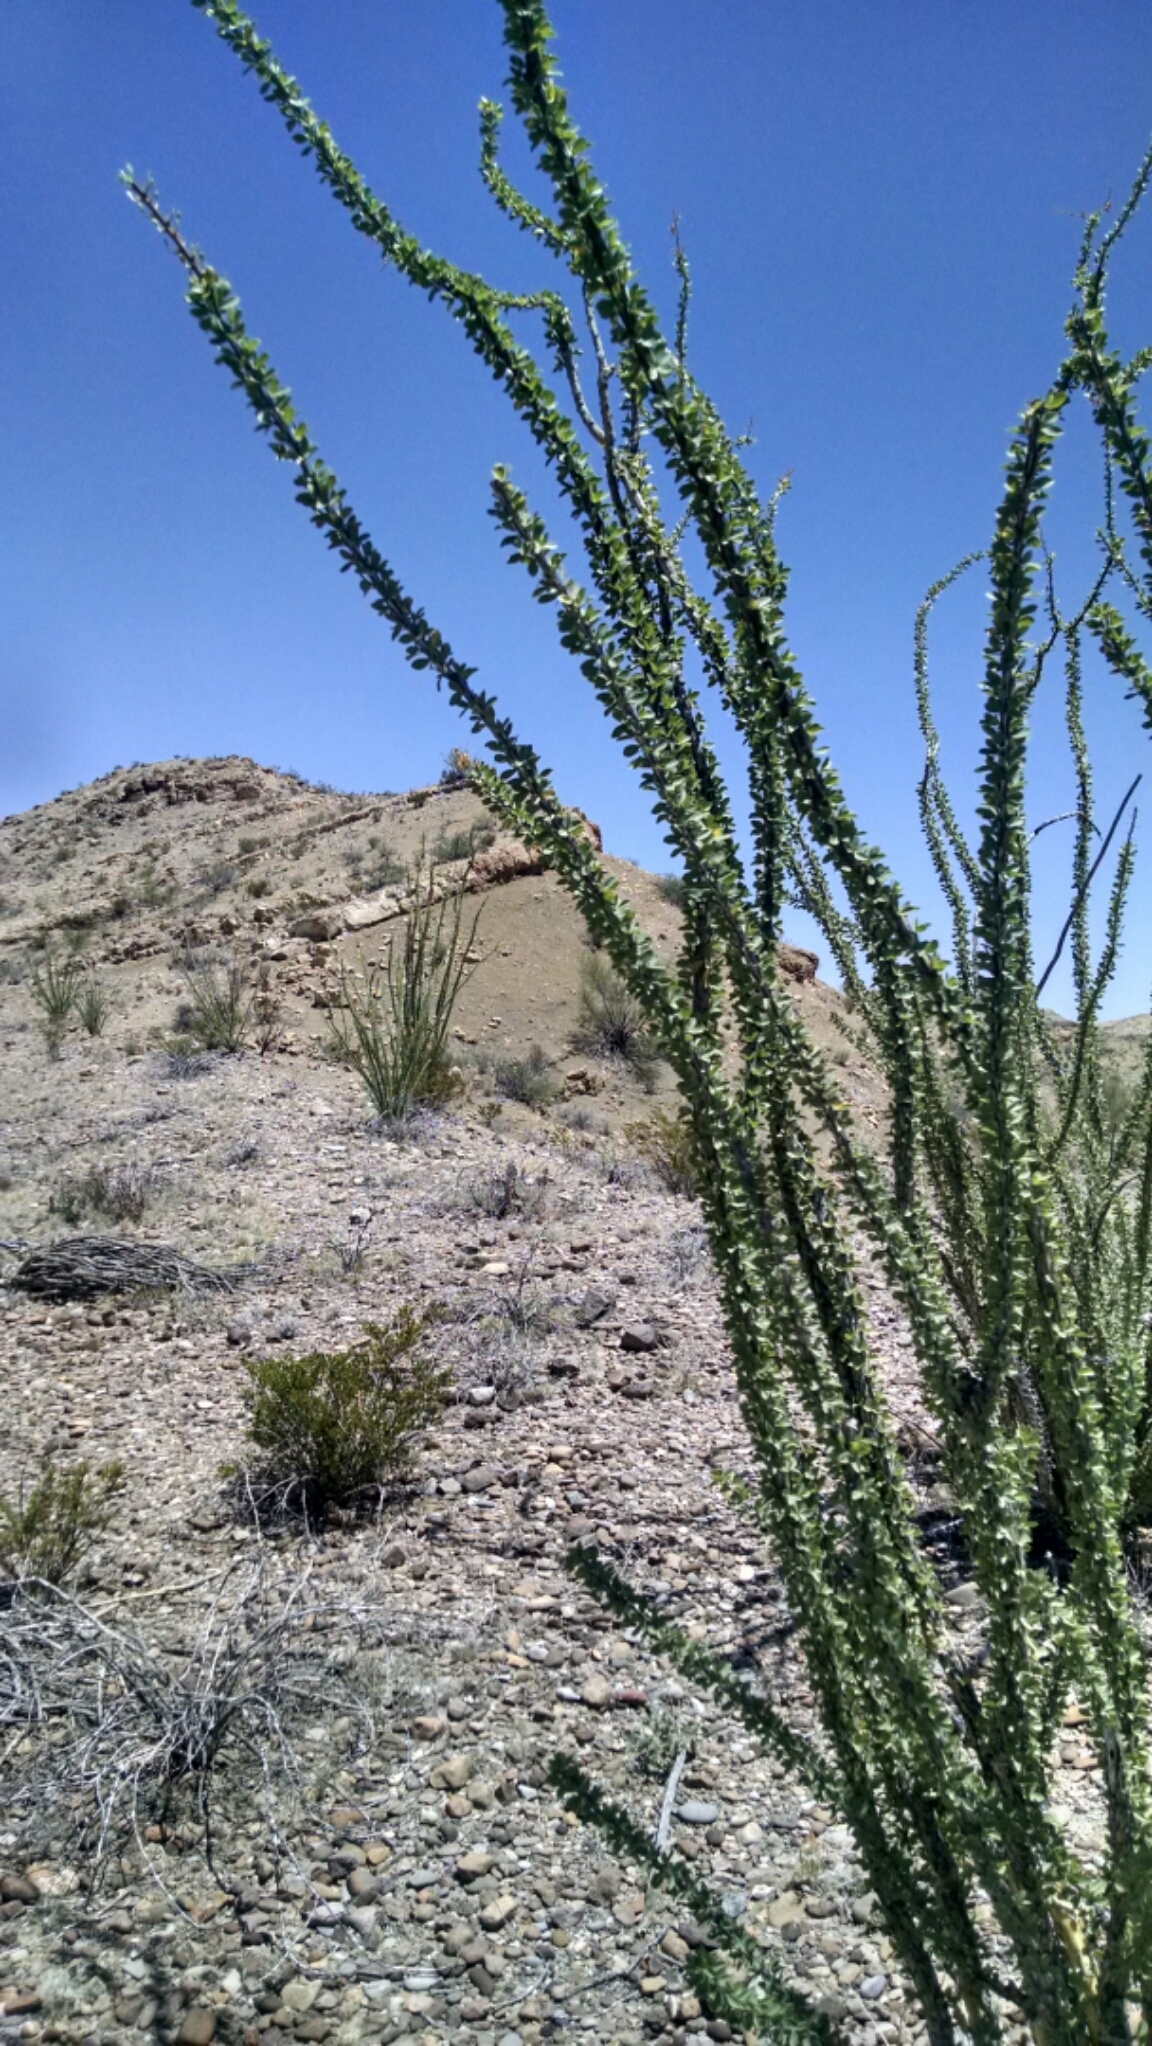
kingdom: Plantae
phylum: Tracheophyta
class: Magnoliopsida
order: Ericales
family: Fouquieriaceae
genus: Fouquieria
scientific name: Fouquieria splendens
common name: Vine-cactus
